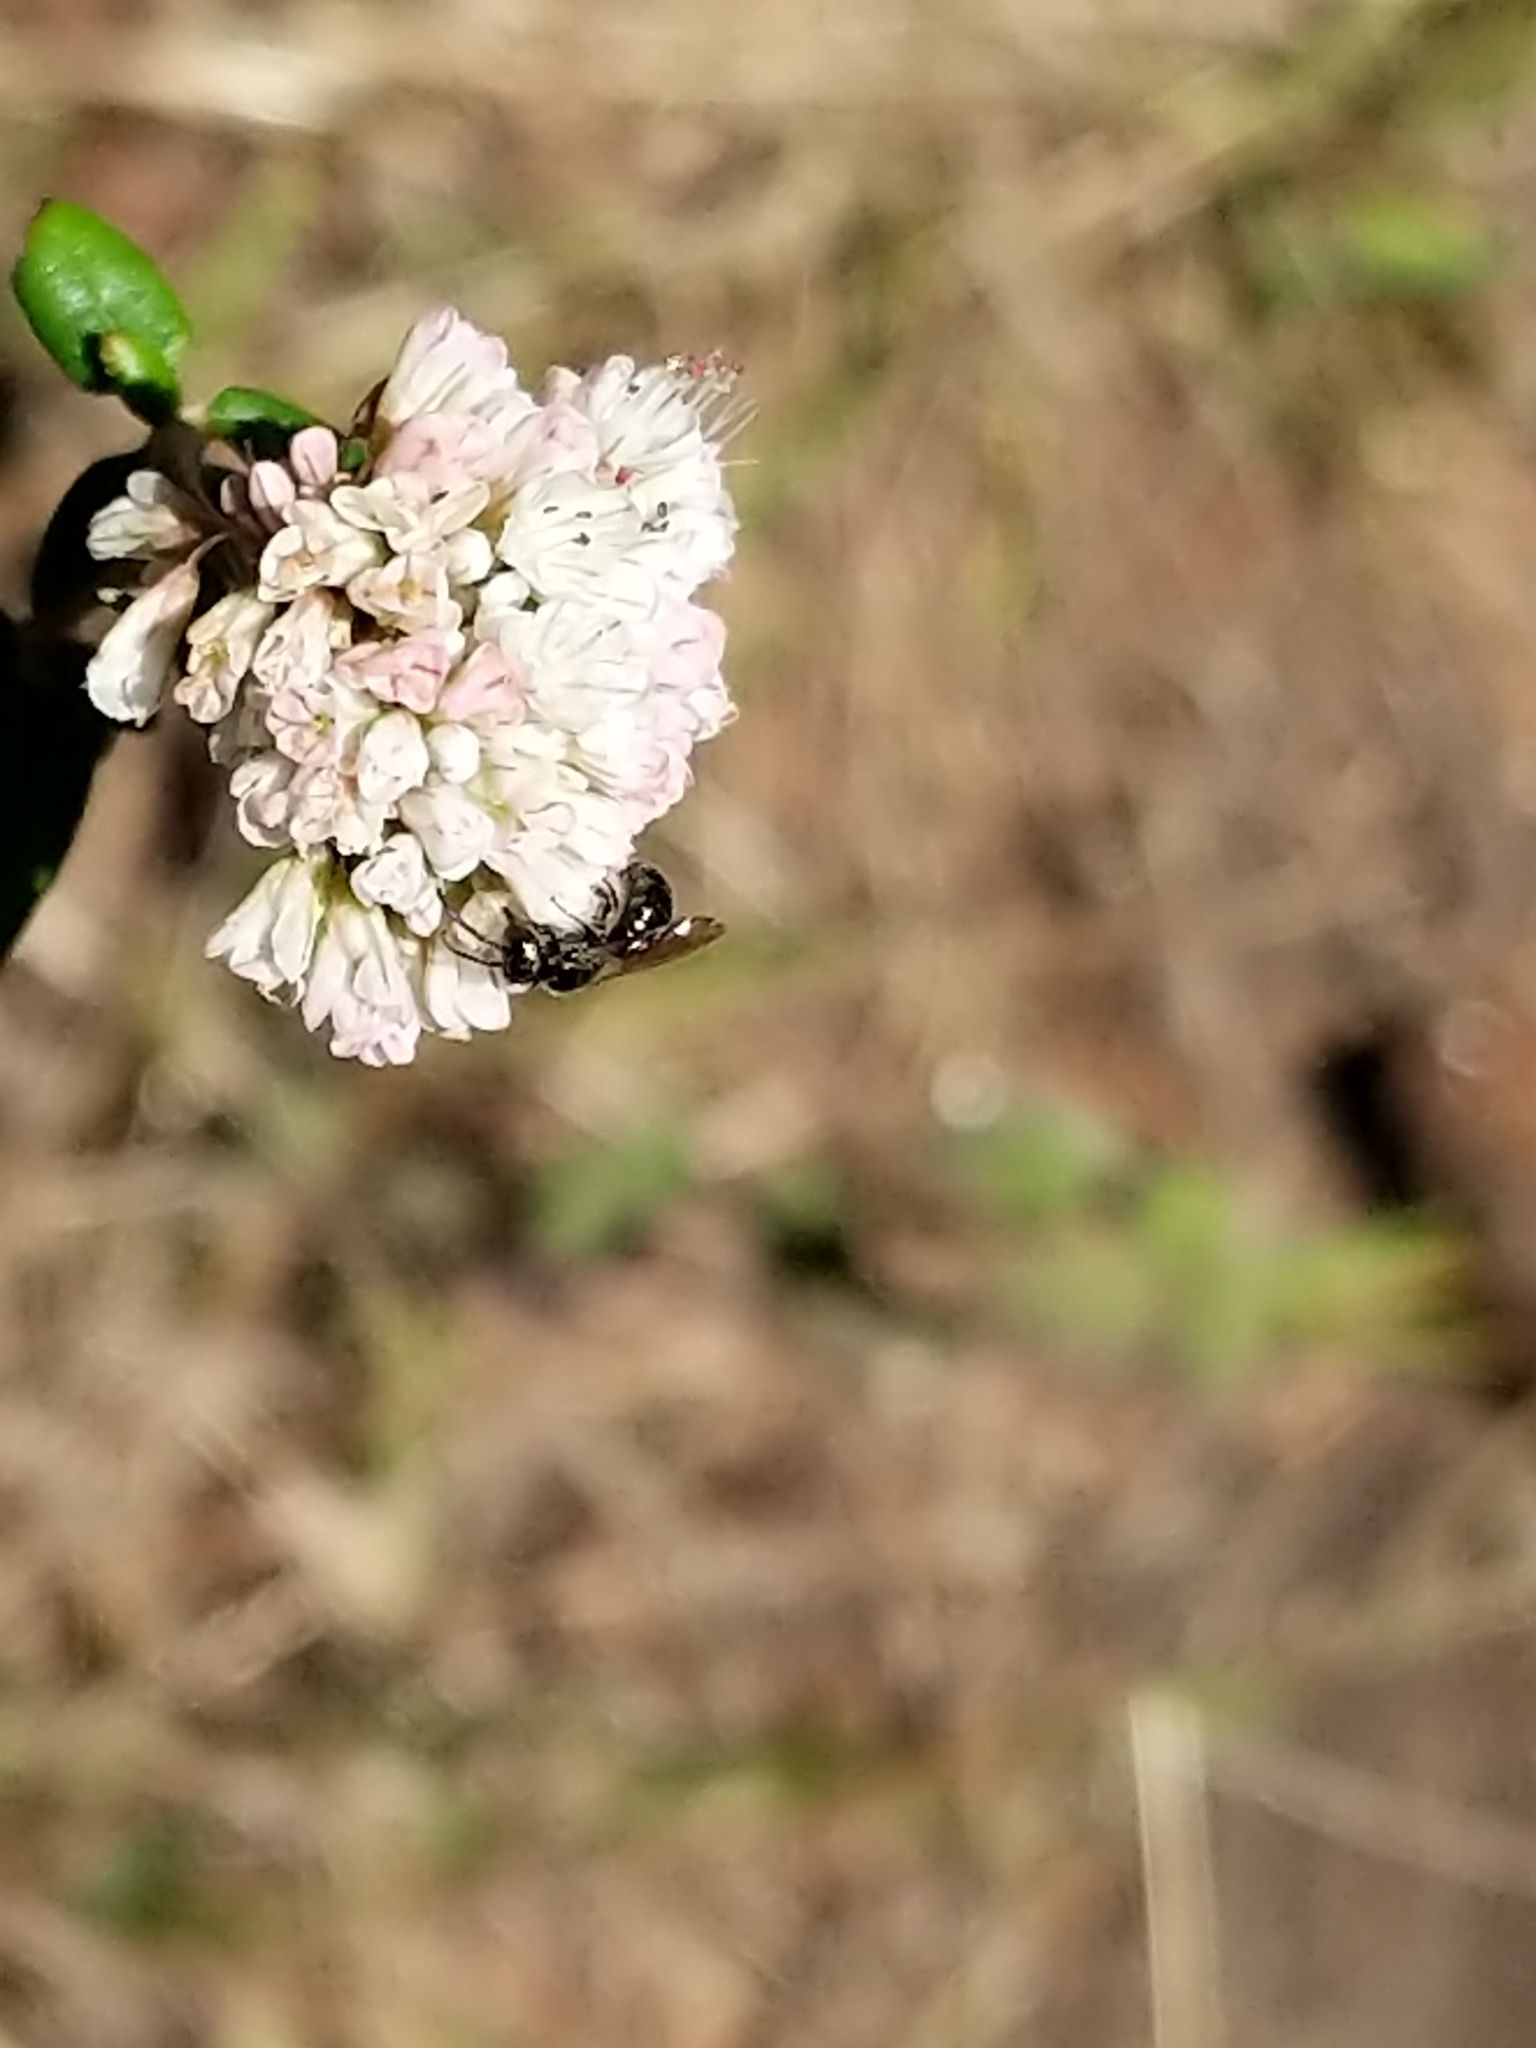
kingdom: Plantae
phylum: Tracheophyta
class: Magnoliopsida
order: Caryophyllales
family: Polygonaceae
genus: Eriogonum
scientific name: Eriogonum parvifolium
